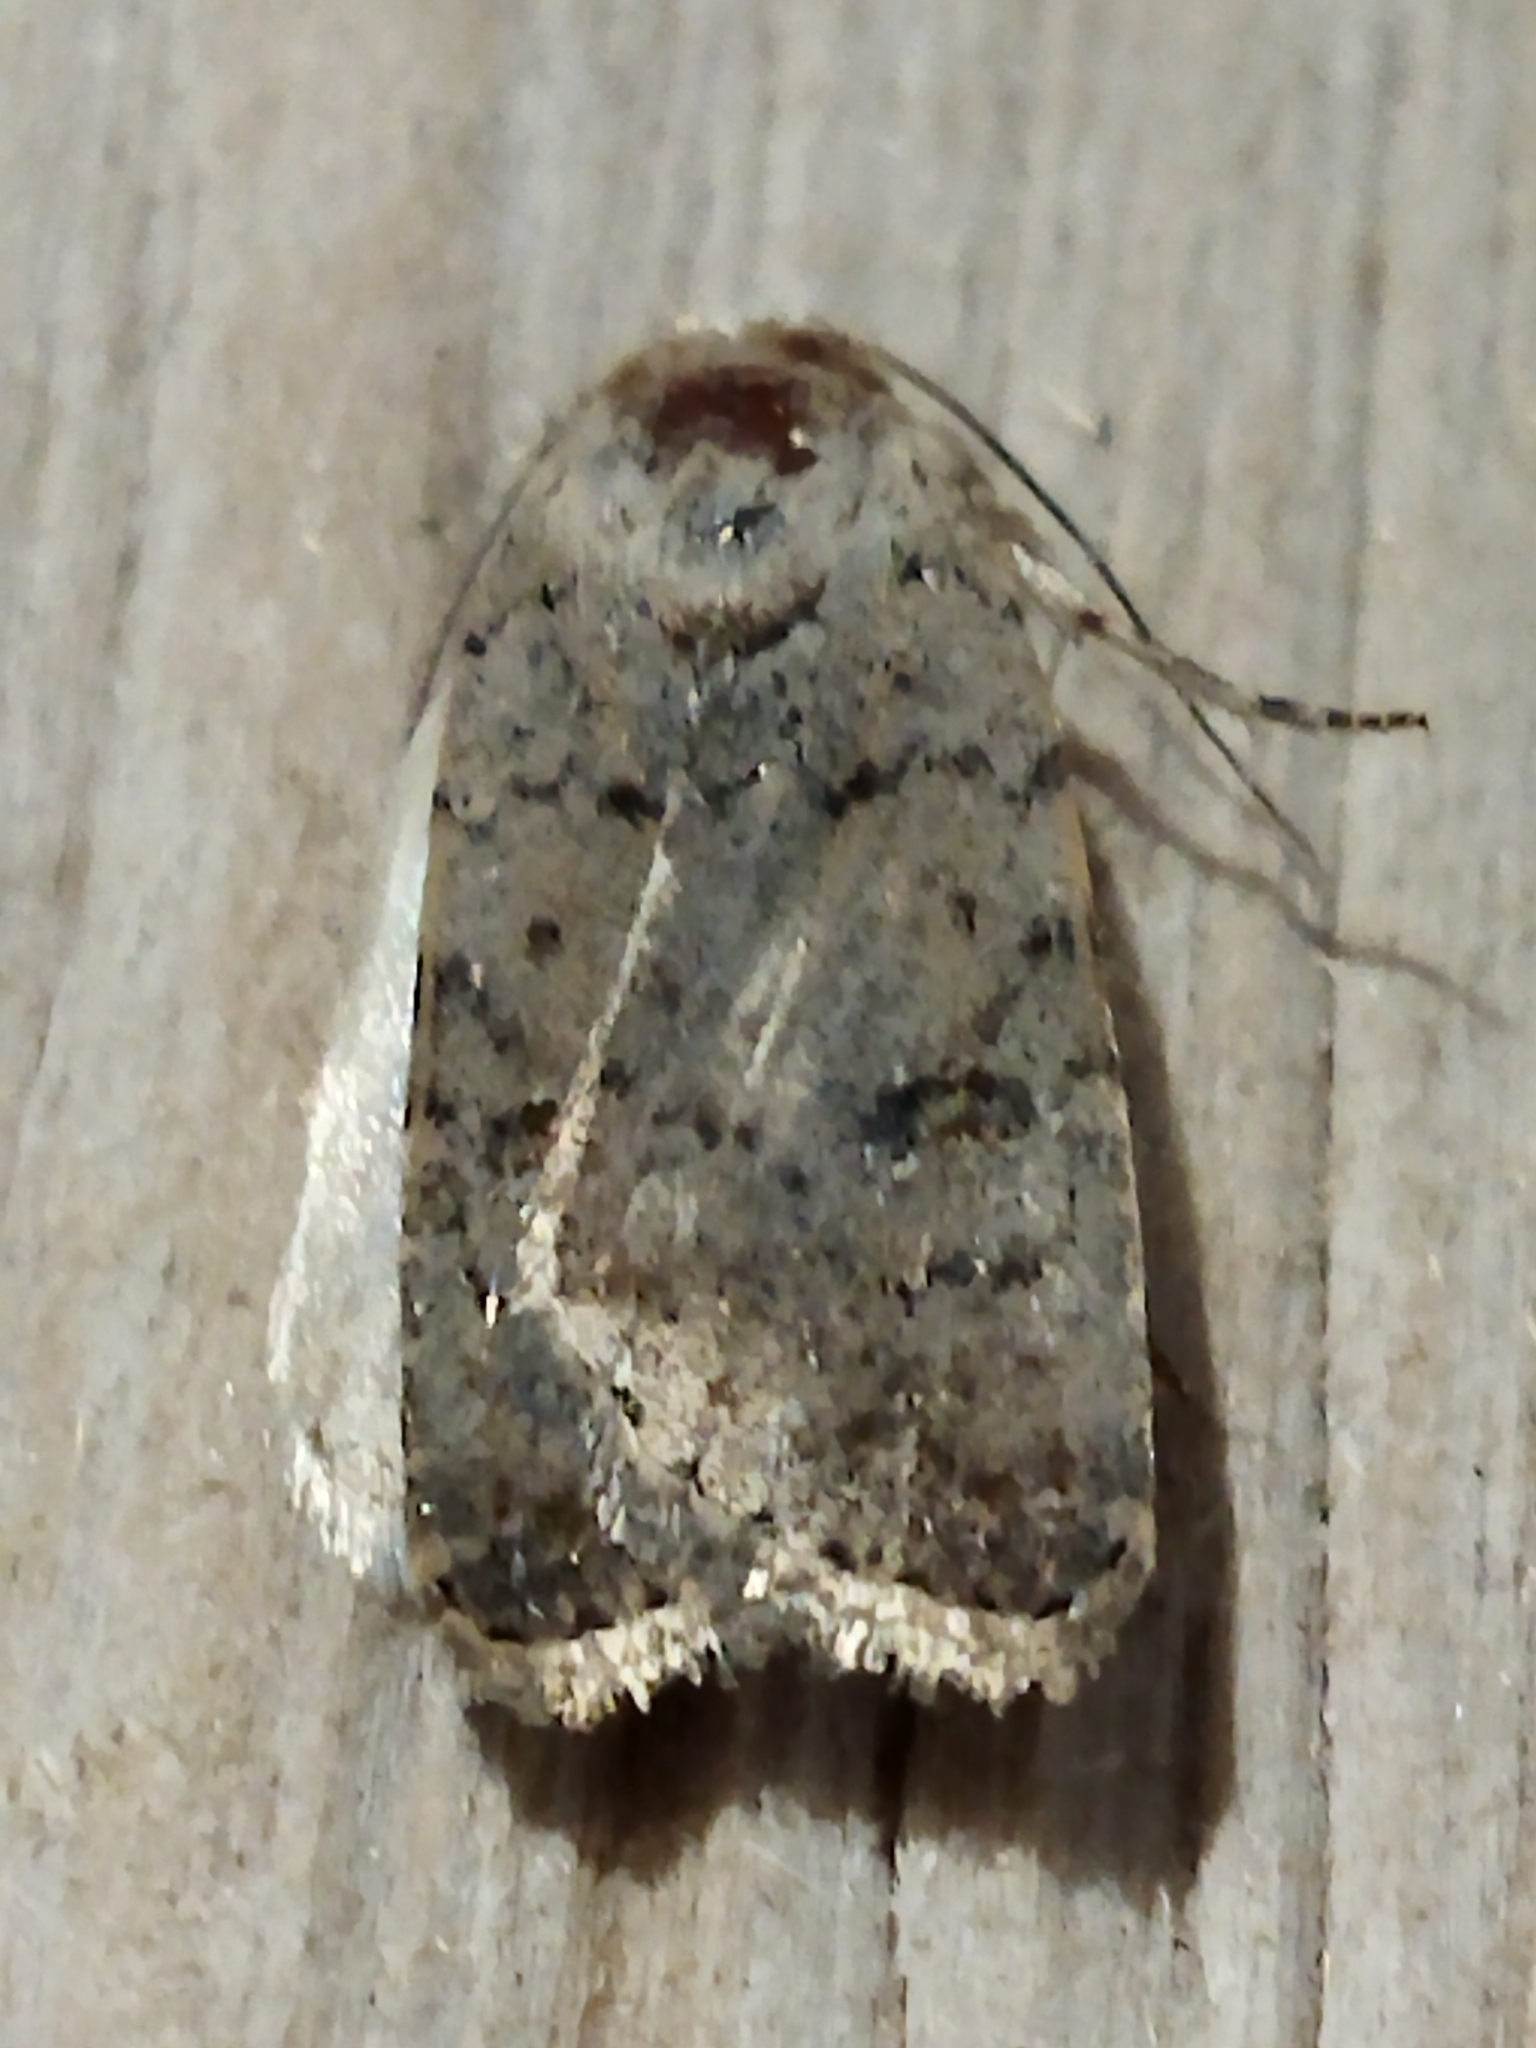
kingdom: Animalia
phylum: Arthropoda
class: Insecta
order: Lepidoptera
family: Noctuidae
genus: Caradrina
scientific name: Caradrina clavipalpis
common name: Pale mottled willow
